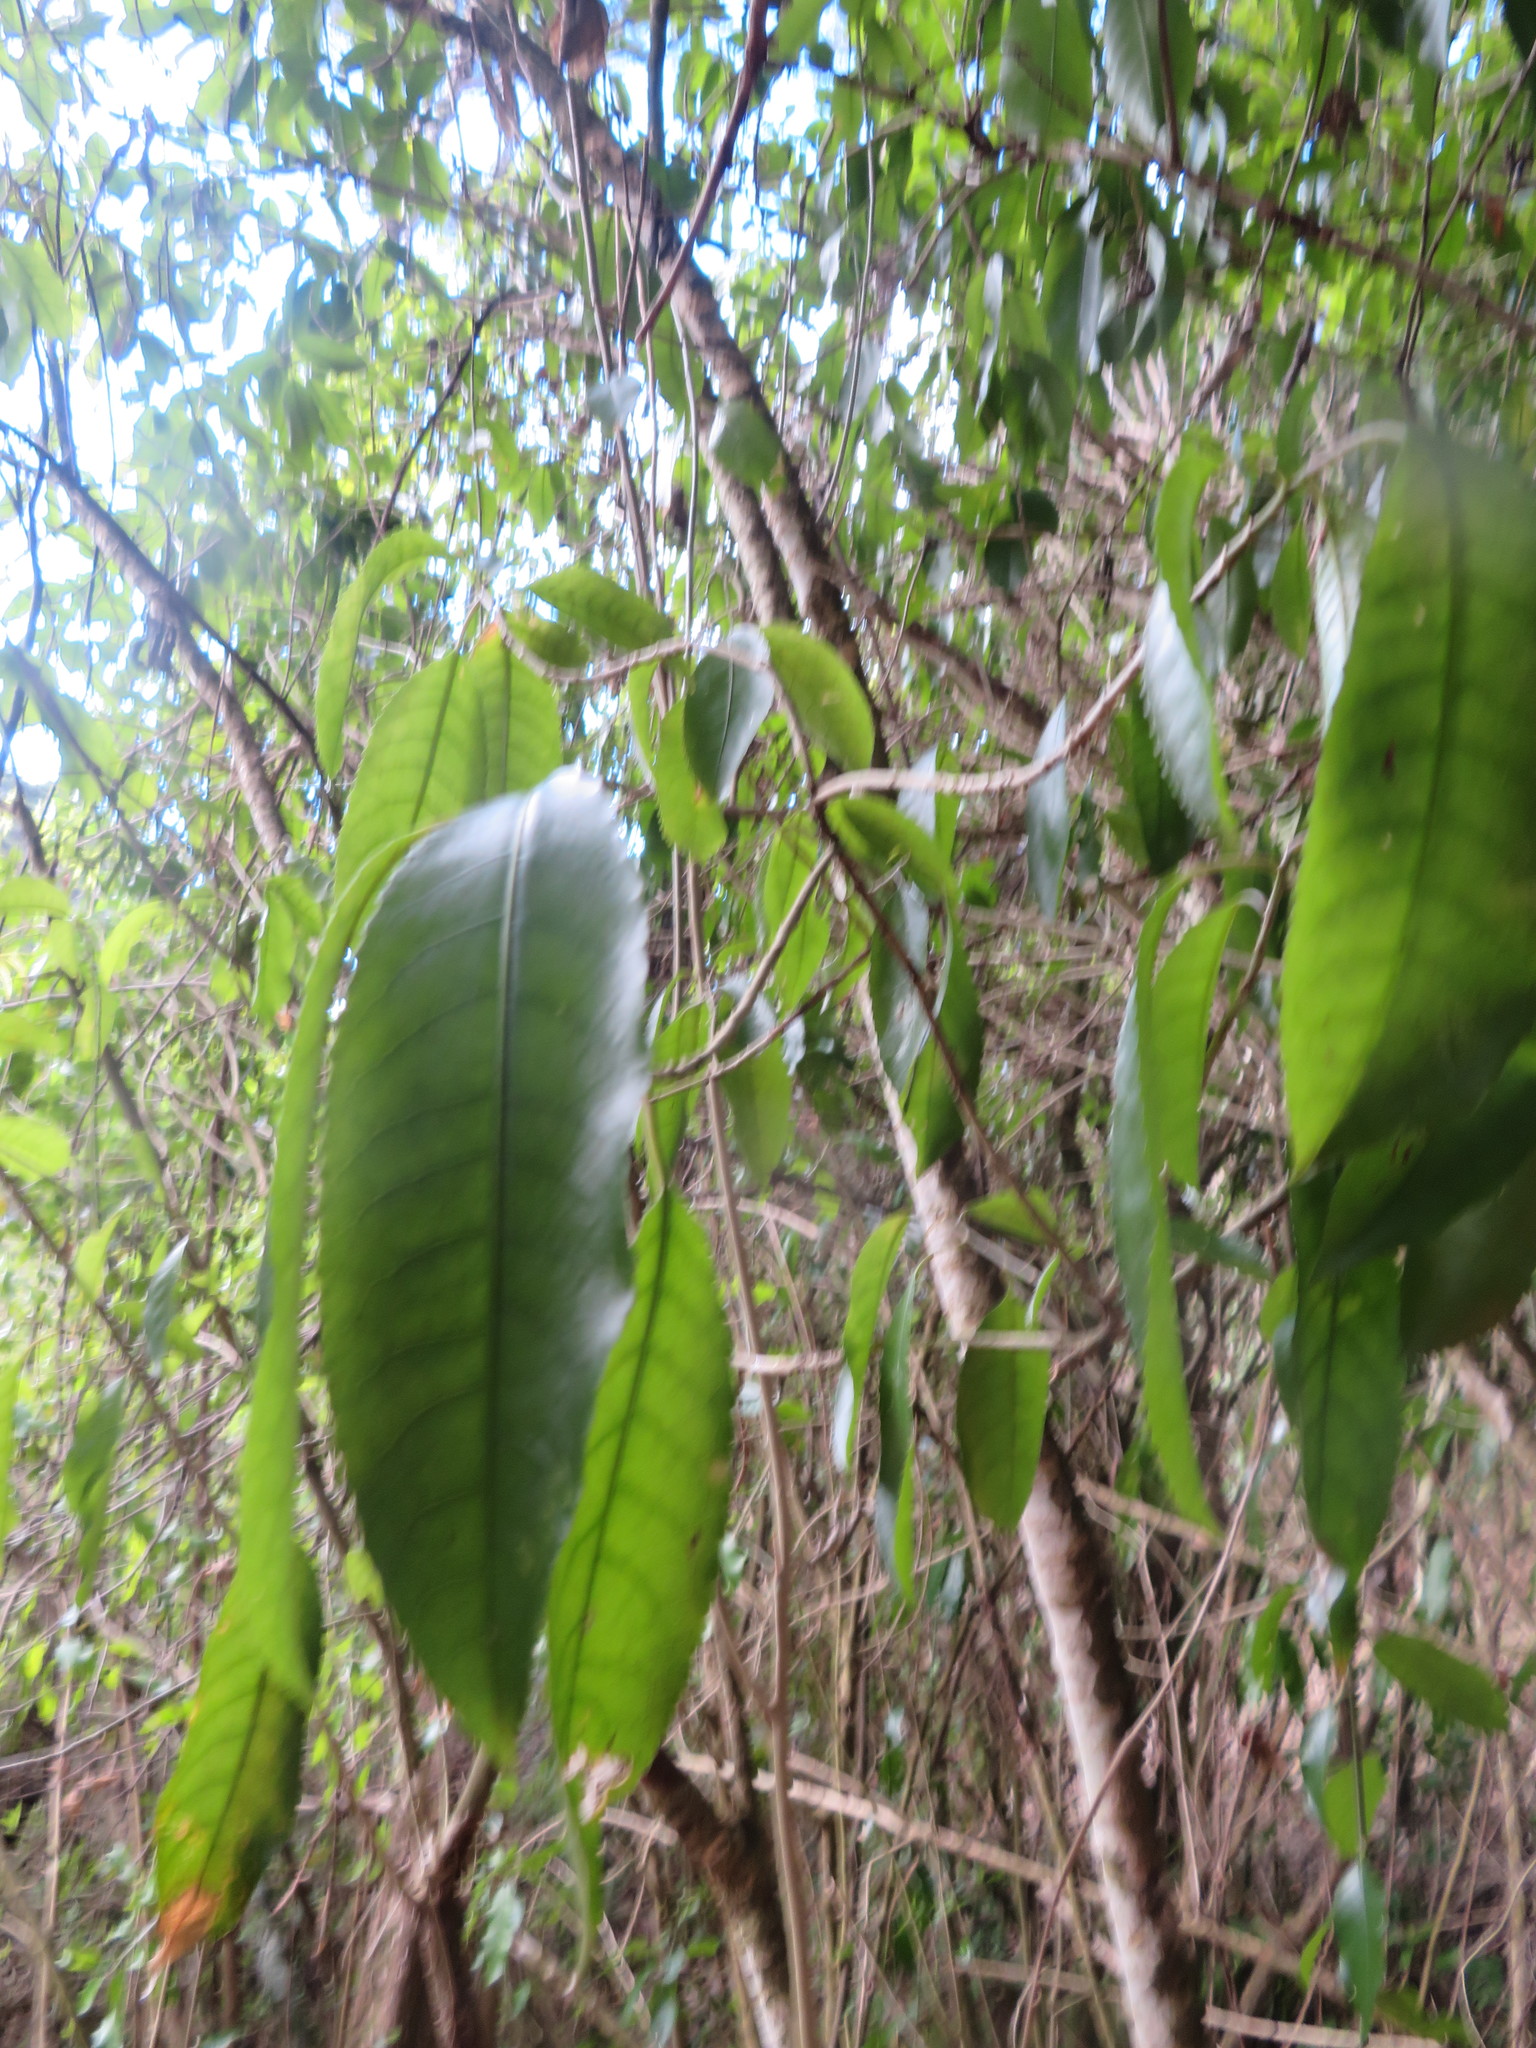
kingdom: Plantae
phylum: Tracheophyta
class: Magnoliopsida
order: Malpighiales
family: Violaceae
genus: Melicytus
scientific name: Melicytus ramiflorus
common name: Mahoe
